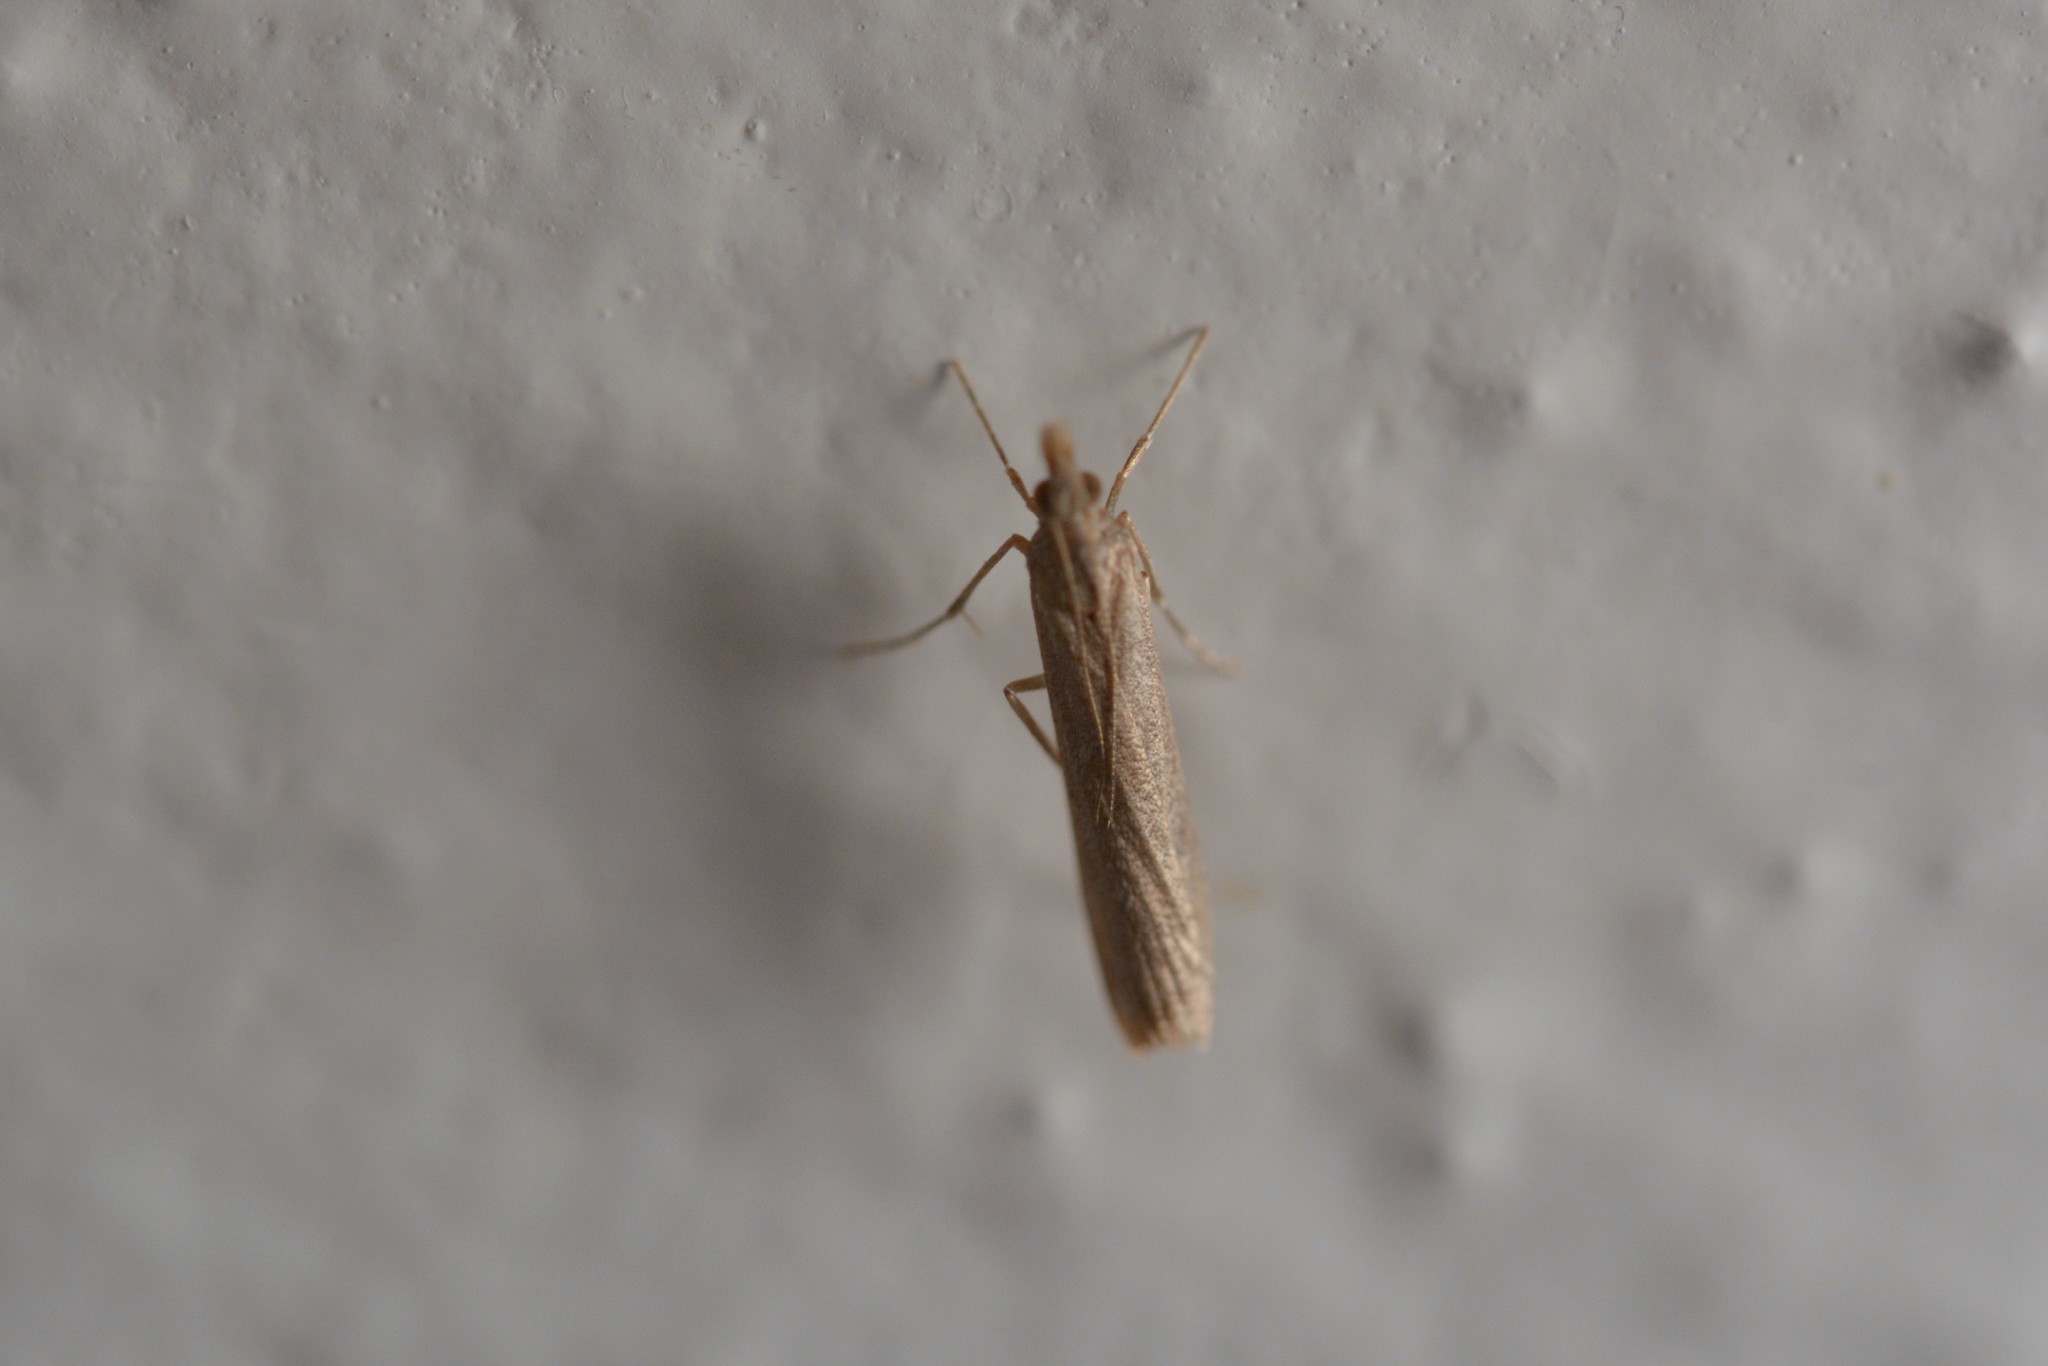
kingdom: Animalia
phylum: Arthropoda
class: Insecta
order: Lepidoptera
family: Crambidae
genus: Eudonia
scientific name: Eudonia leptalea
